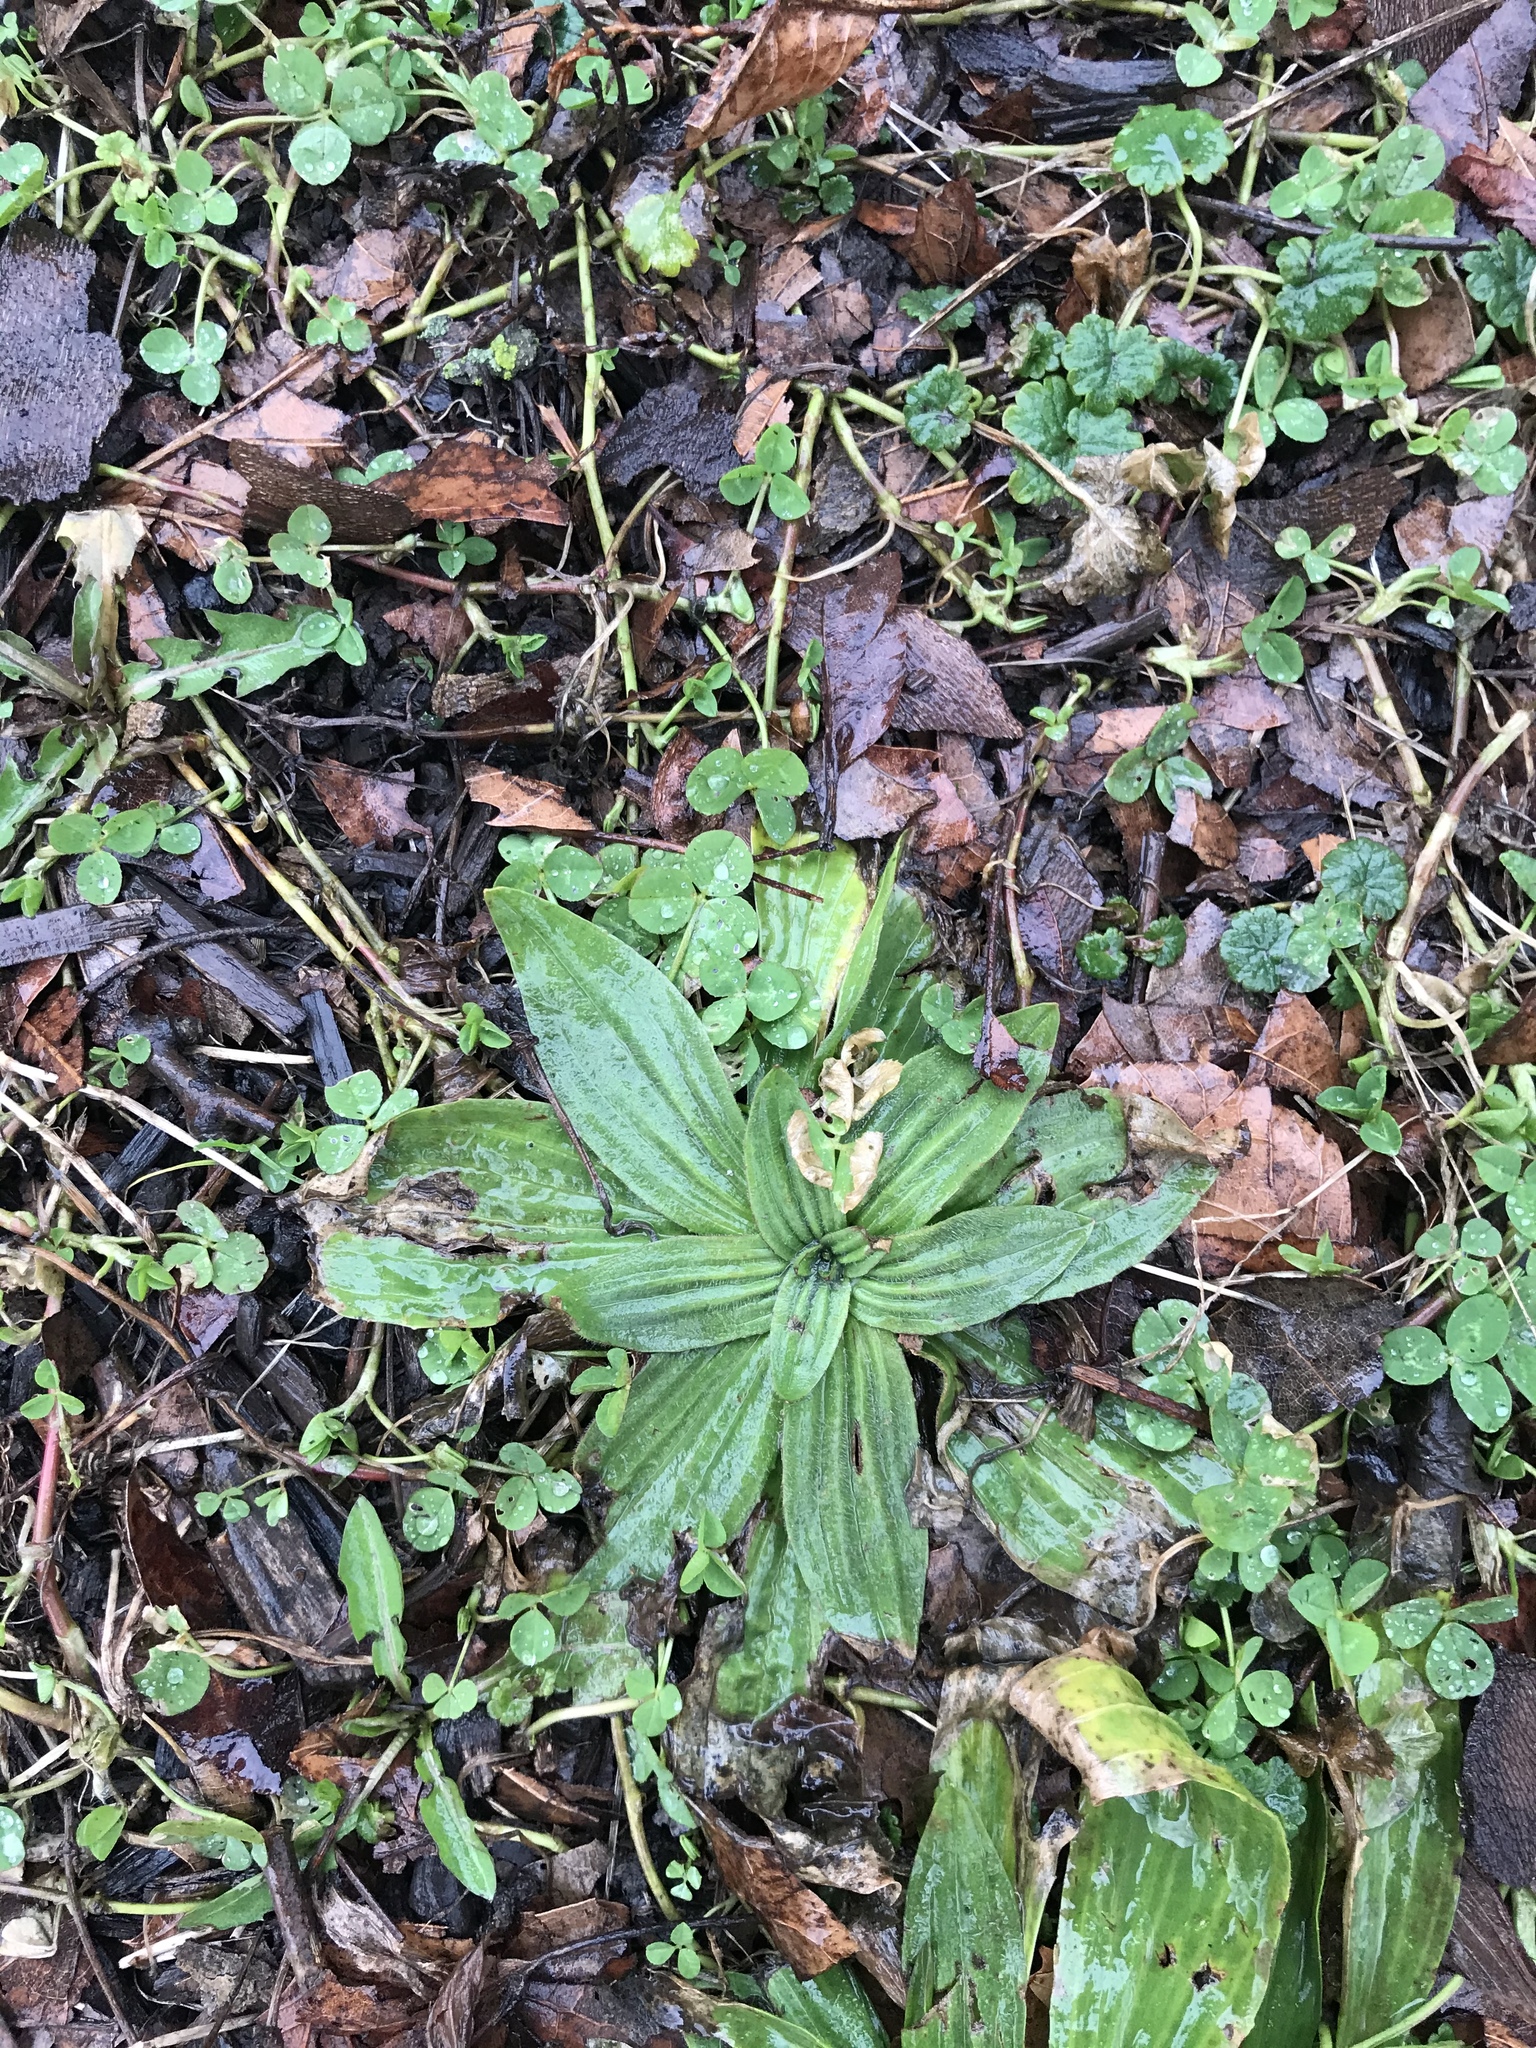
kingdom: Plantae
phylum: Tracheophyta
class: Magnoliopsida
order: Lamiales
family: Plantaginaceae
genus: Plantago
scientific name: Plantago lanceolata
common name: Ribwort plantain
